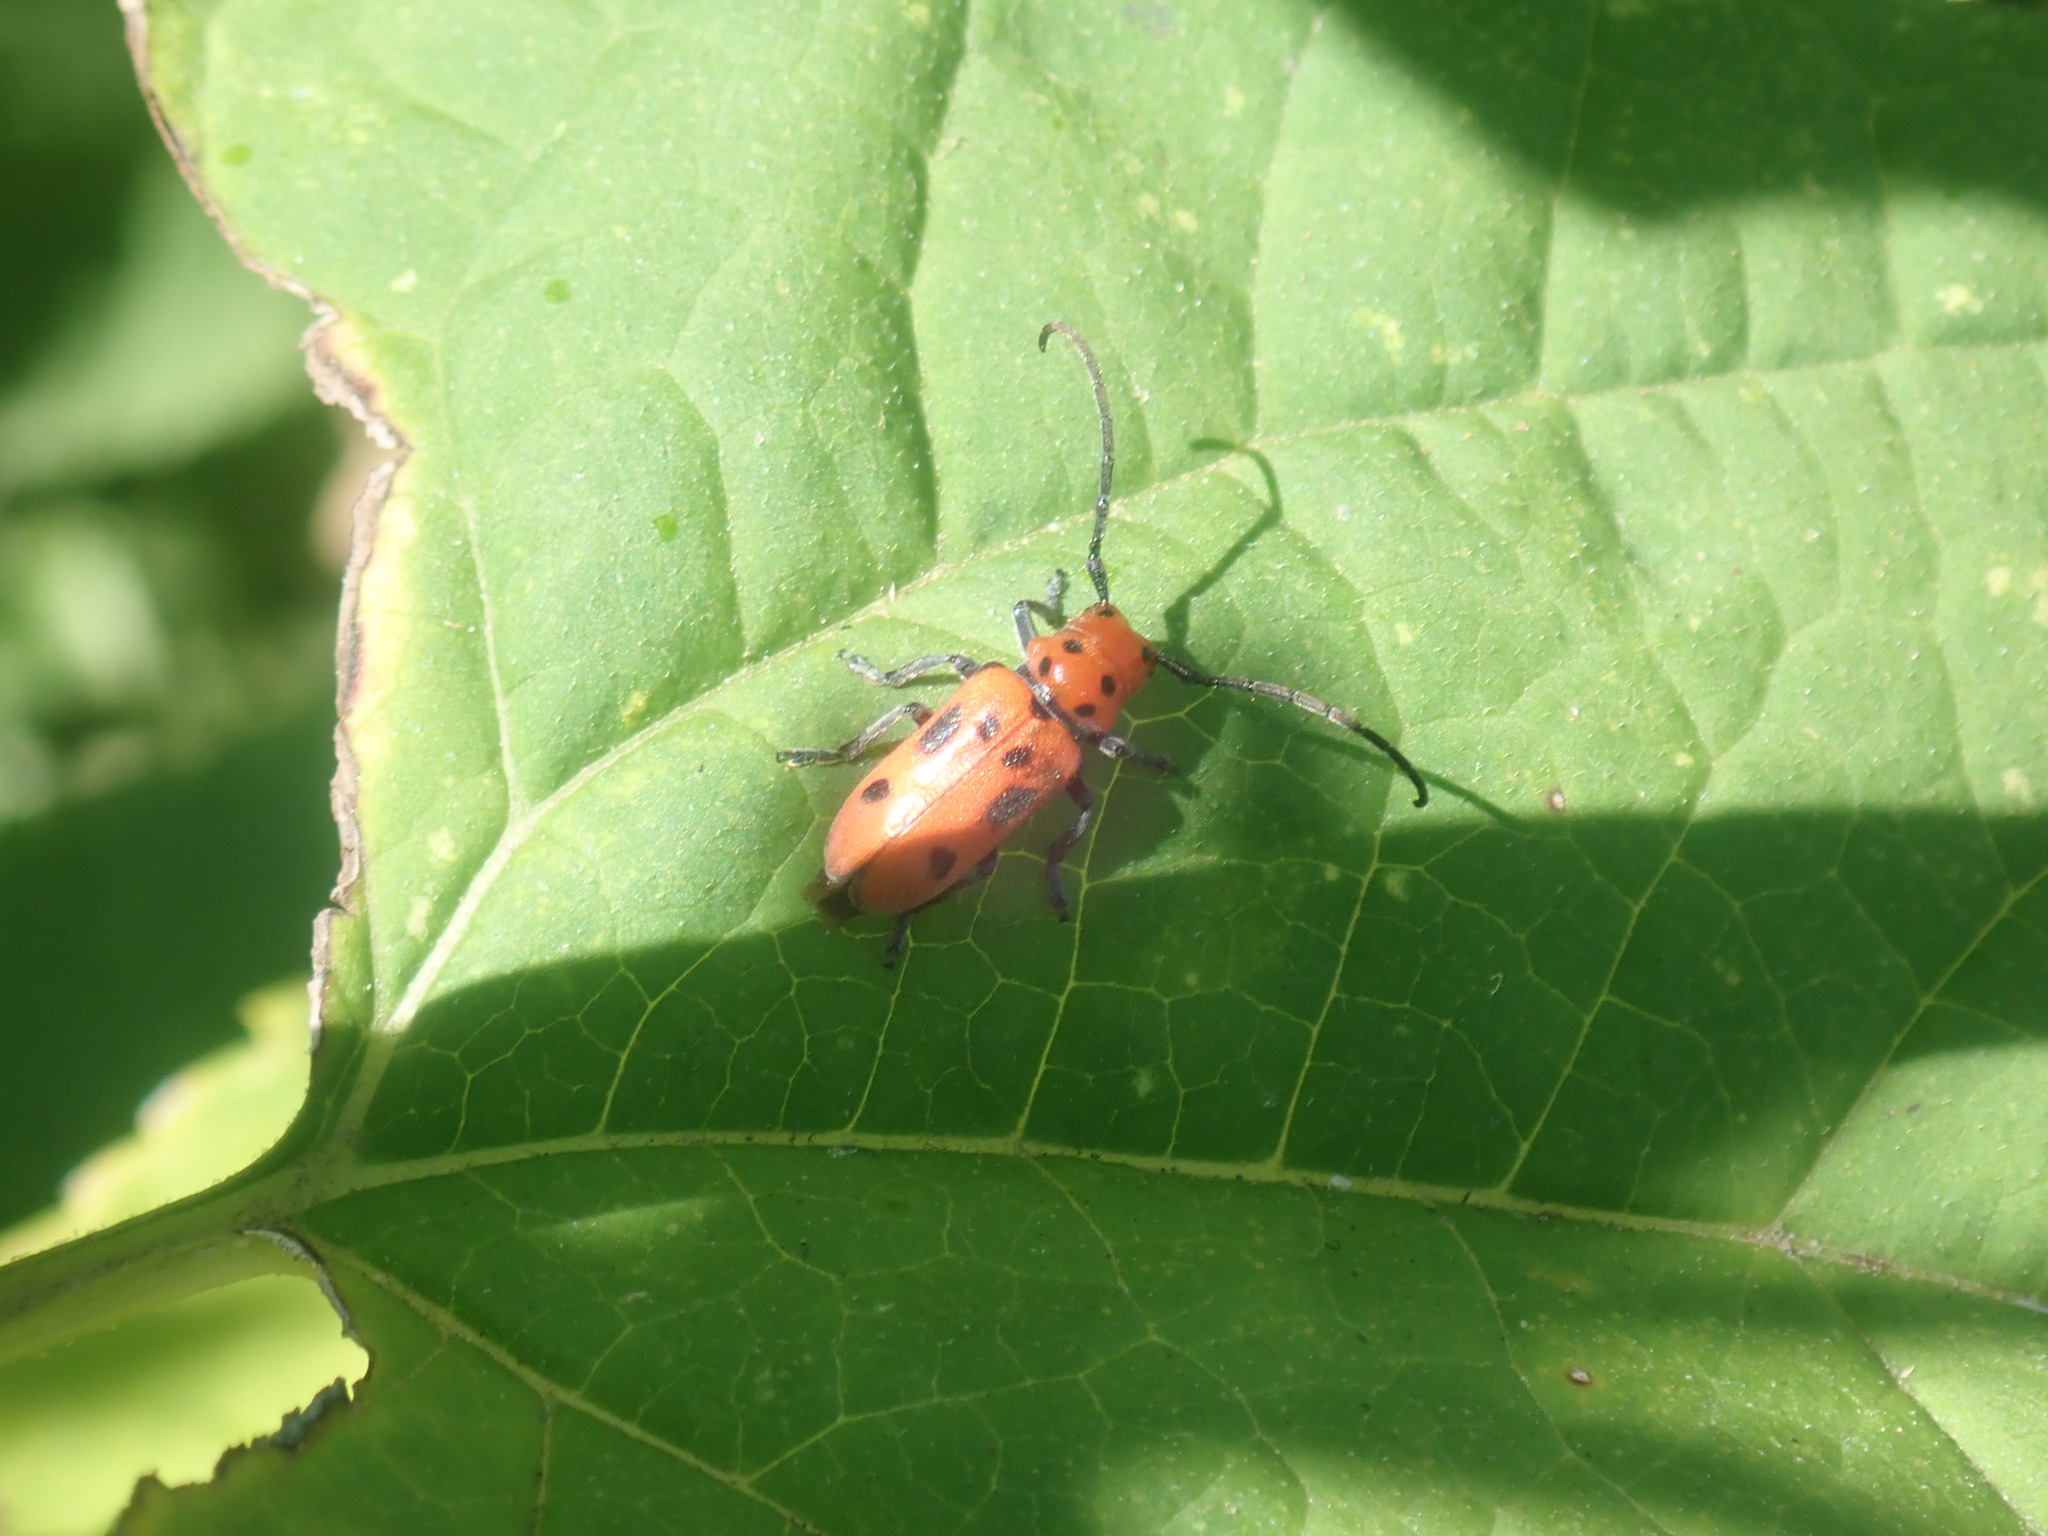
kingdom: Animalia
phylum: Arthropoda
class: Insecta
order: Coleoptera
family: Cerambycidae
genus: Tetraopes
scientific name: Tetraopes tetrophthalmus
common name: Red milkweed beetle
